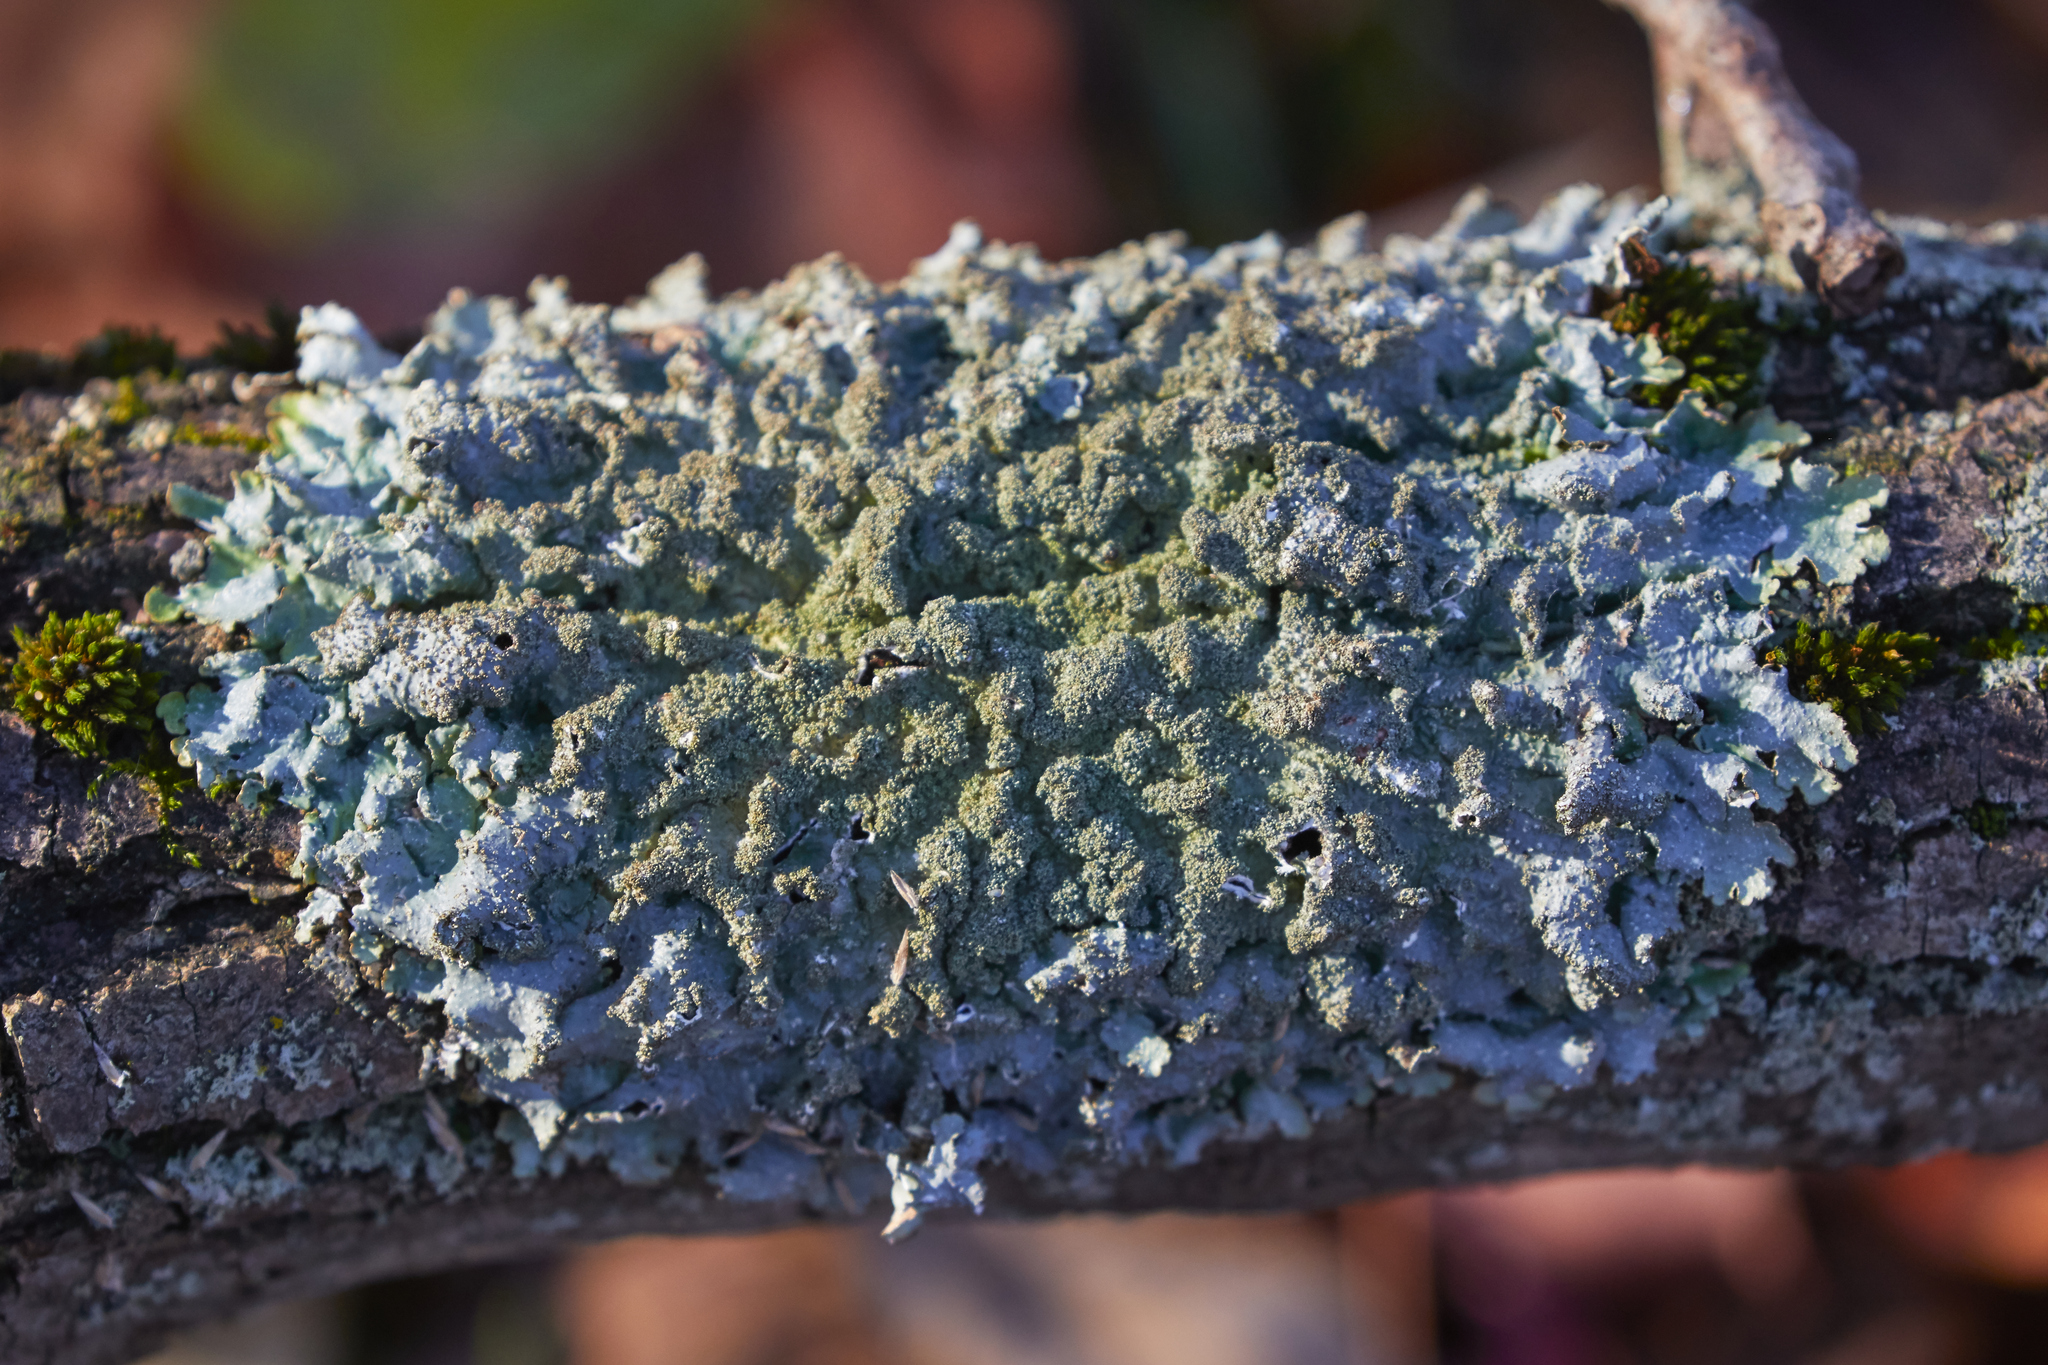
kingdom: Fungi
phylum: Ascomycota
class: Lecanoromycetes
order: Lecanorales
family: Parmeliaceae
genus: Punctelia
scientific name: Punctelia rudecta
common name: Rough speckled shield lichen
